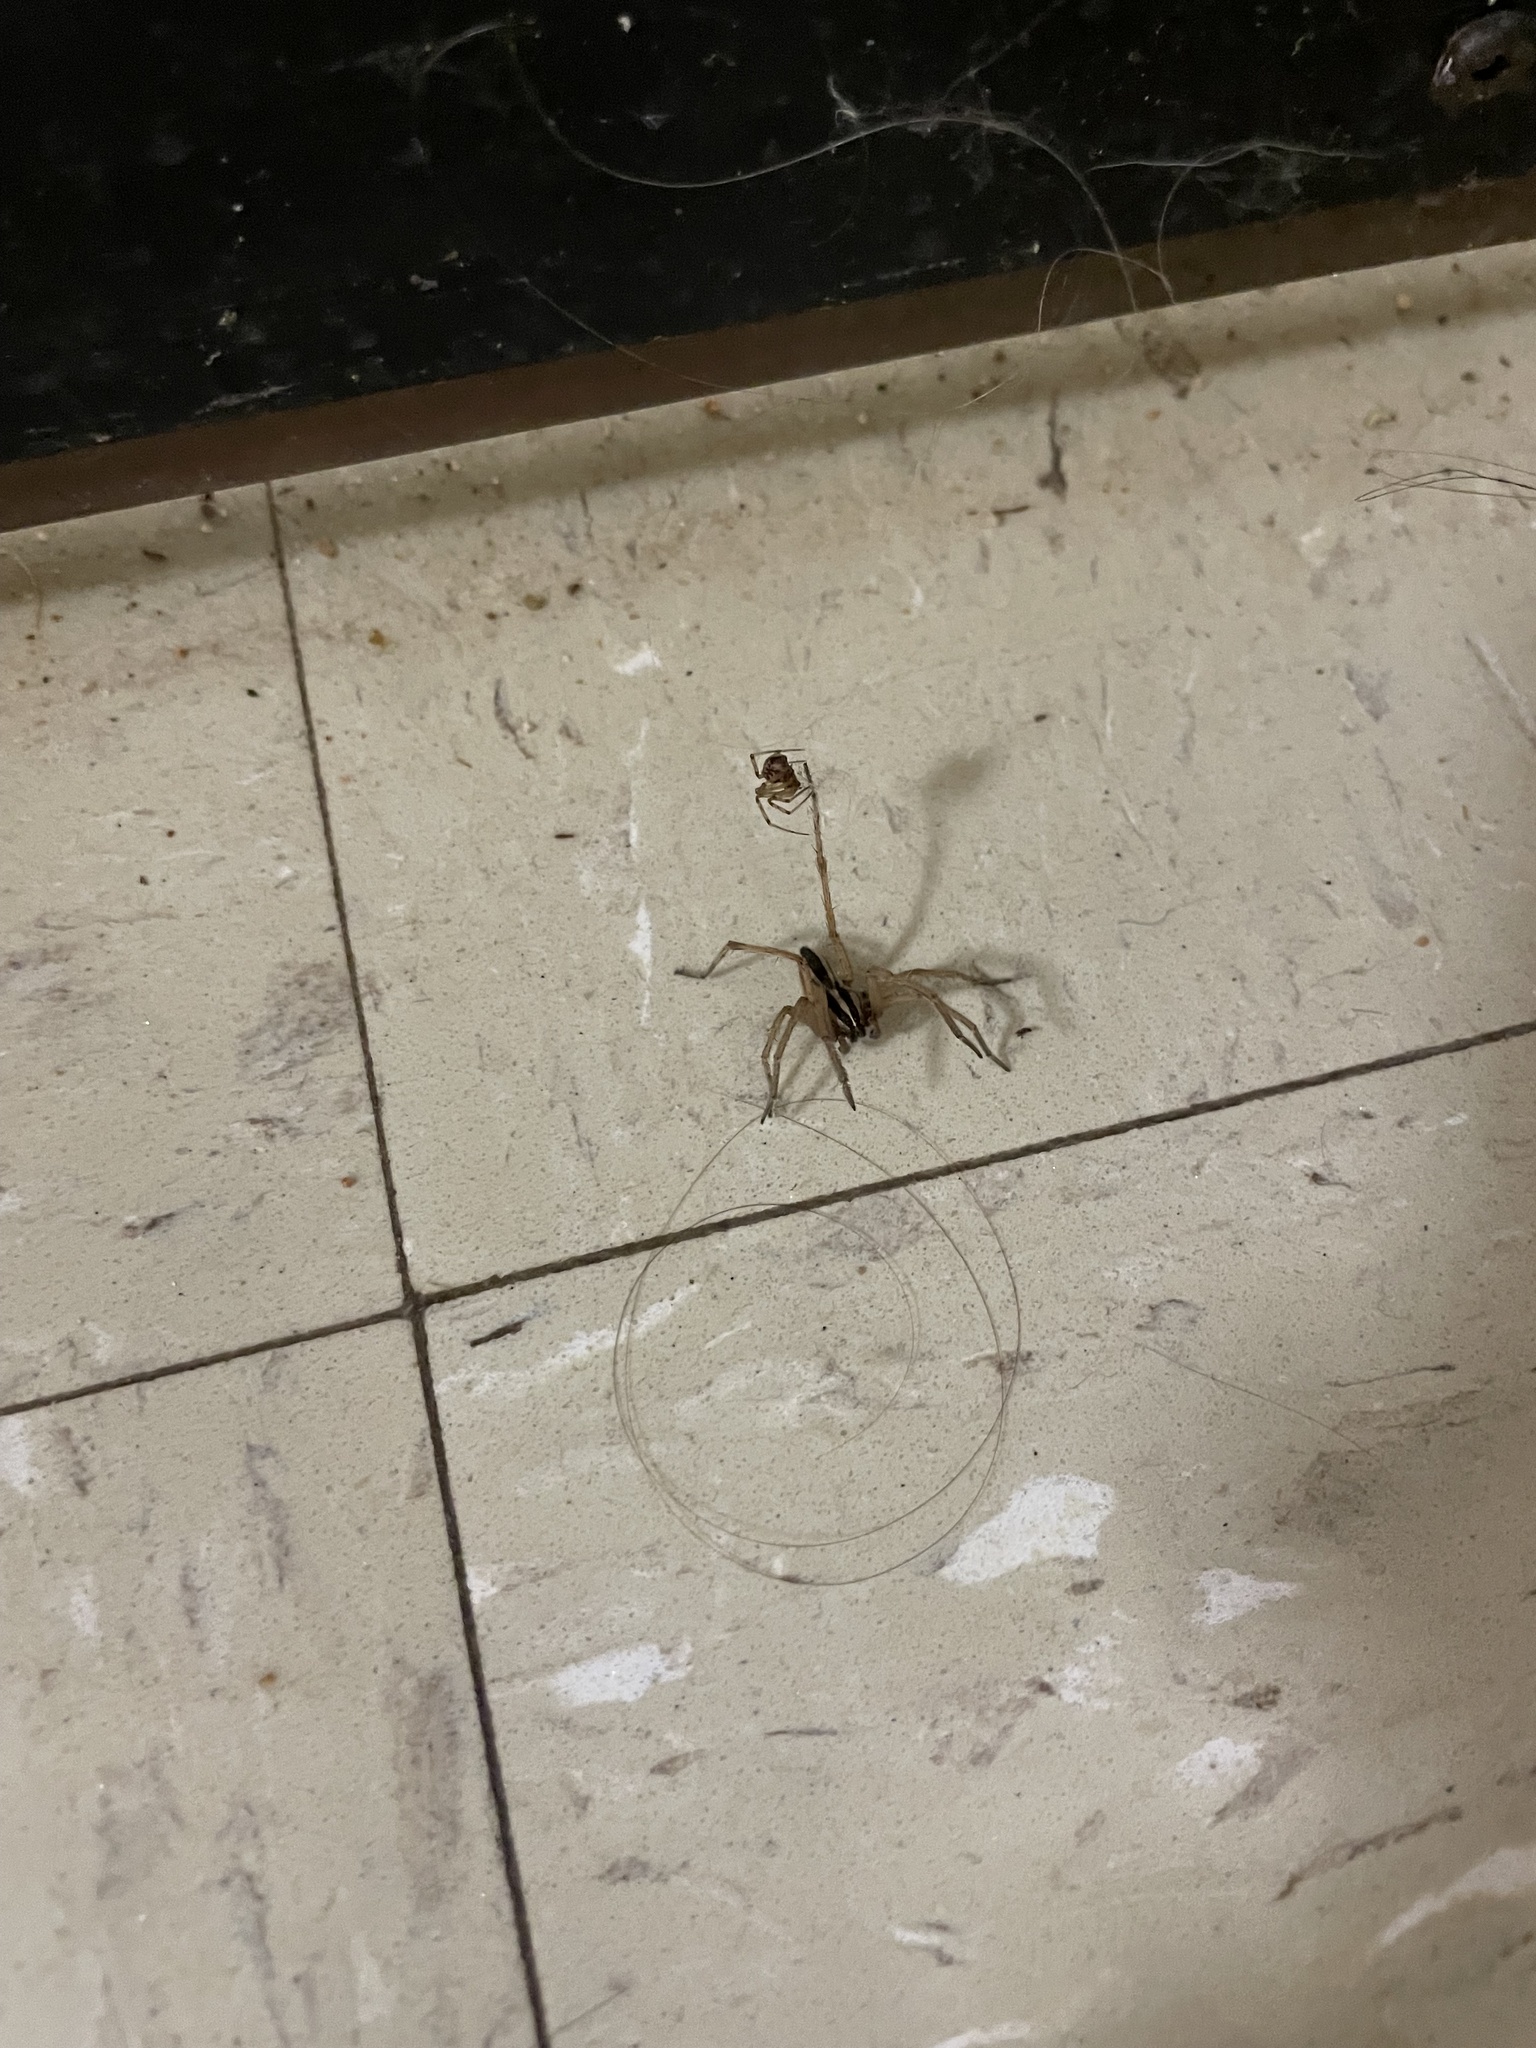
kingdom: Animalia
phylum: Arthropoda
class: Arachnida
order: Araneae
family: Lycosidae
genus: Rabidosa
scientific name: Rabidosa punctulata
